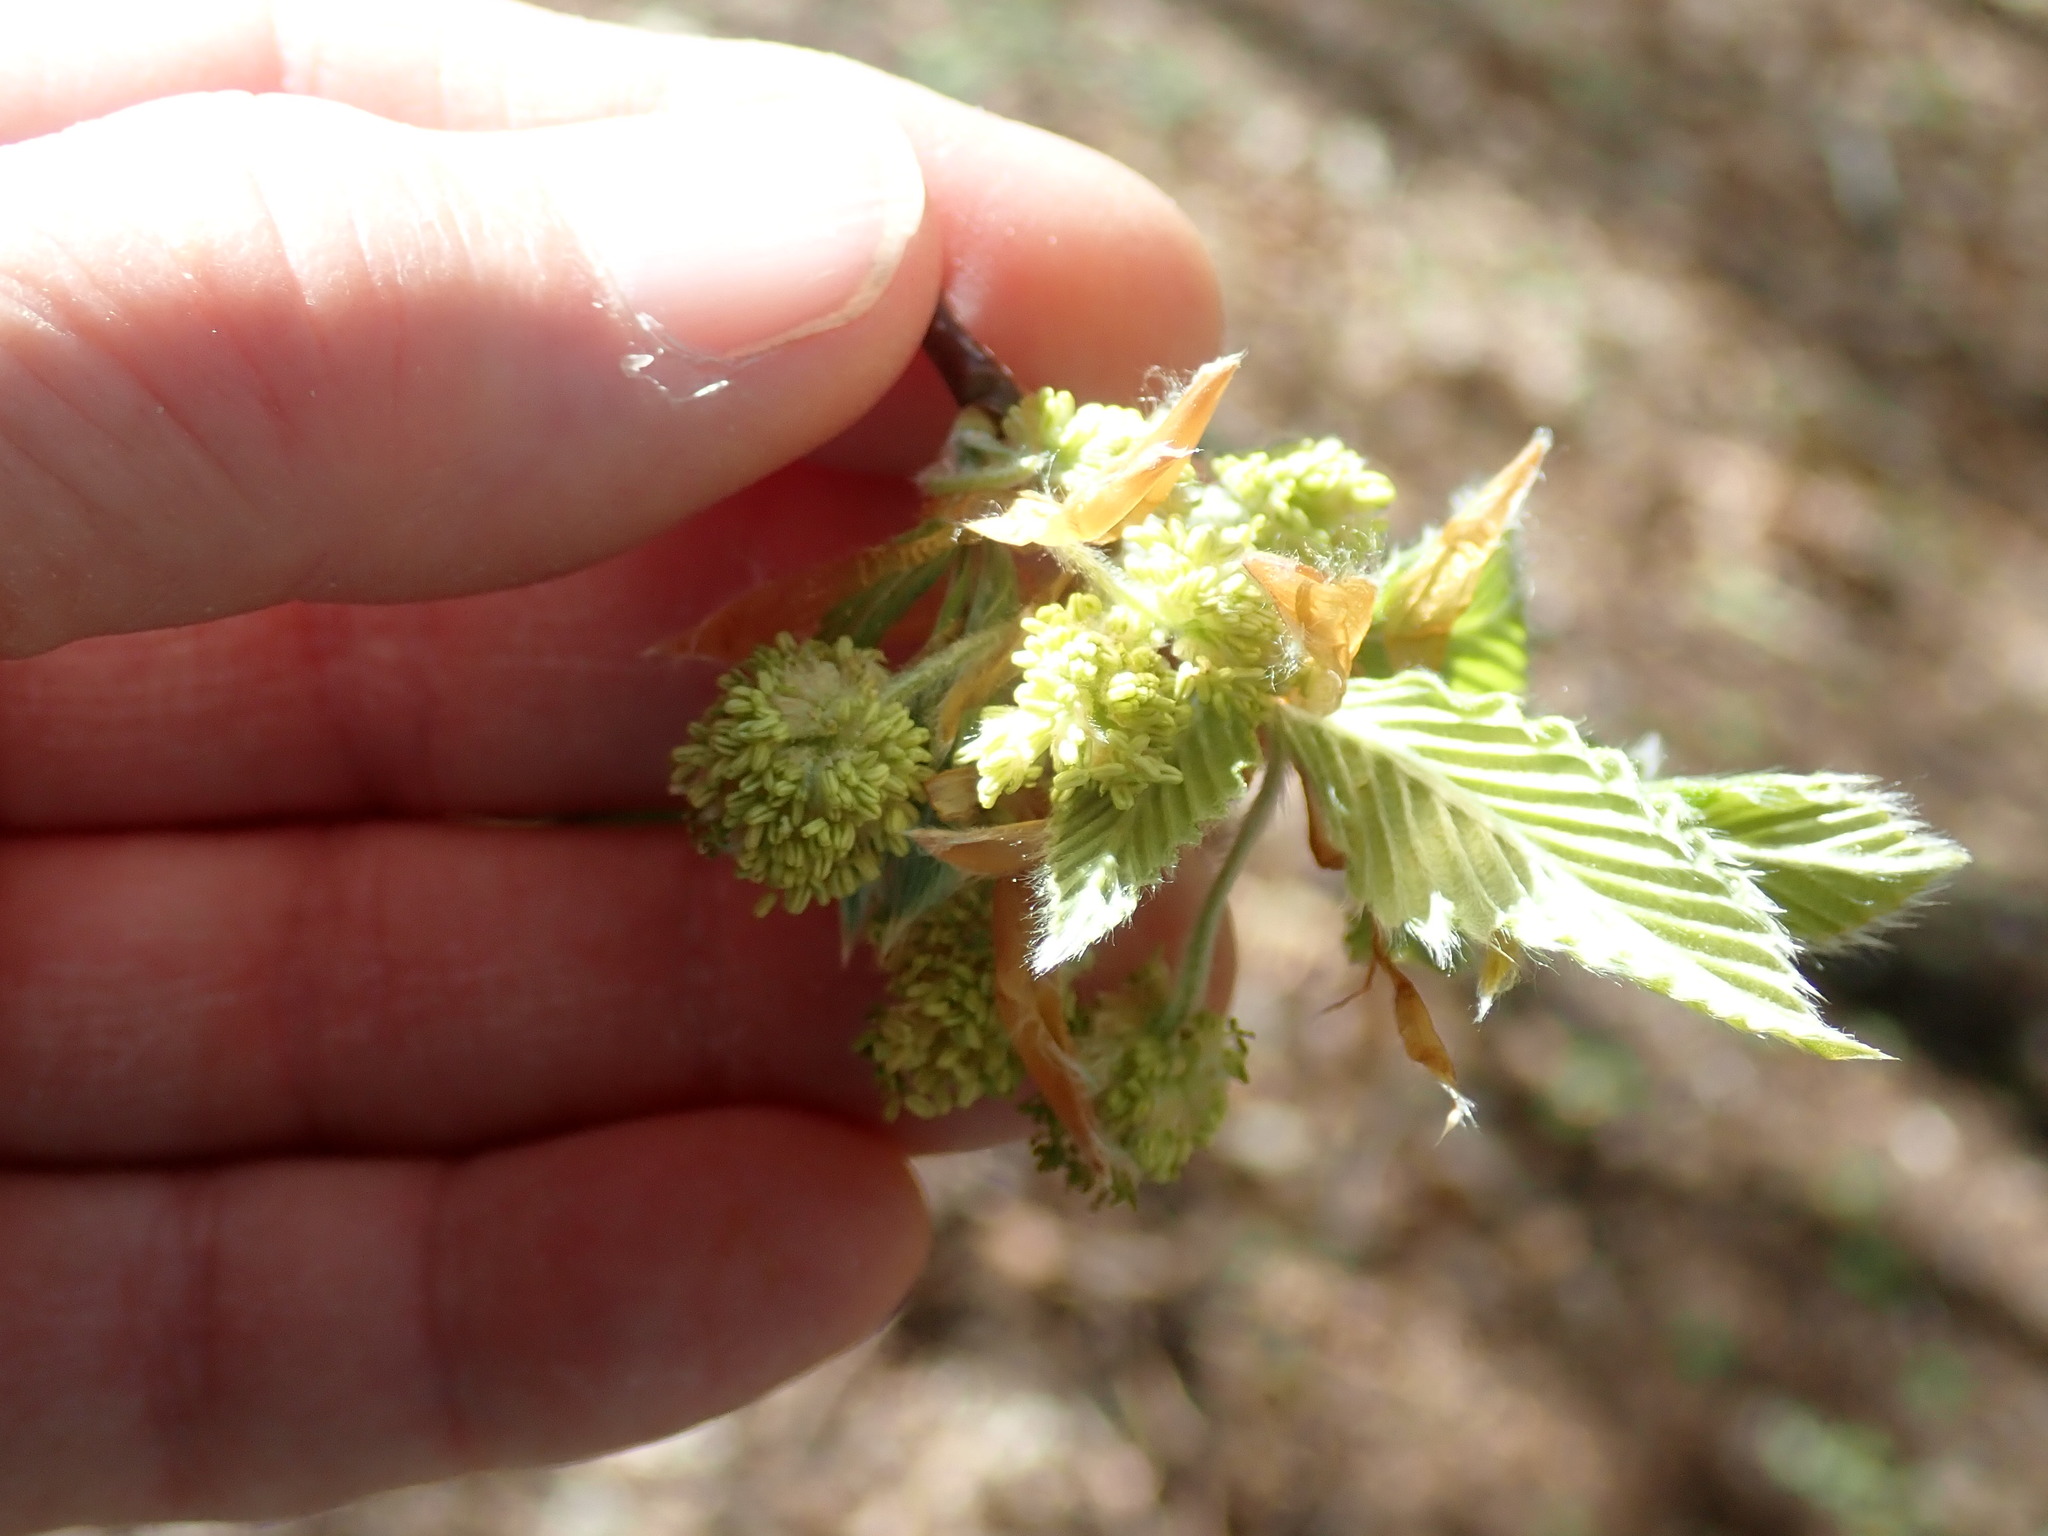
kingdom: Plantae
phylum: Tracheophyta
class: Magnoliopsida
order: Fagales
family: Fagaceae
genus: Fagus
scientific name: Fagus grandifolia
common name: American beech
